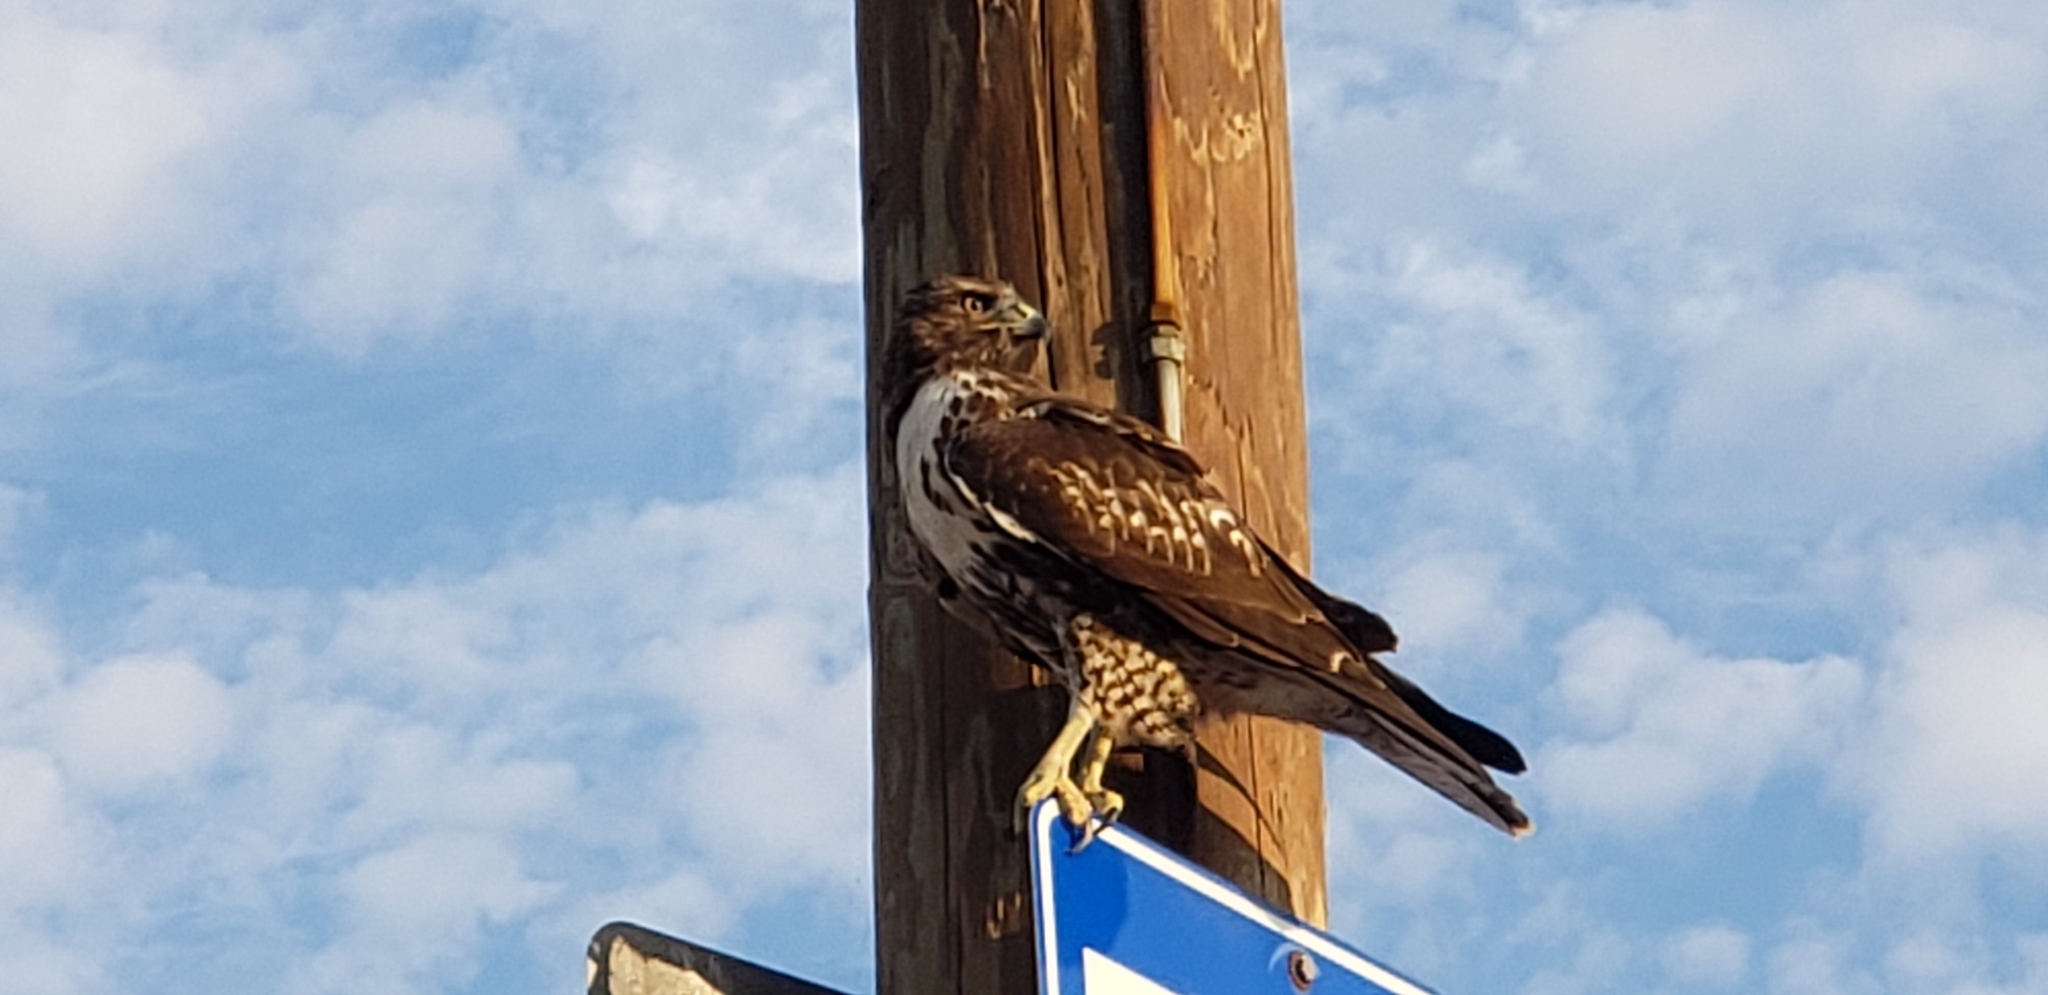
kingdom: Animalia
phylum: Chordata
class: Aves
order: Accipitriformes
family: Accipitridae
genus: Buteo
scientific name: Buteo jamaicensis
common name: Red-tailed hawk
